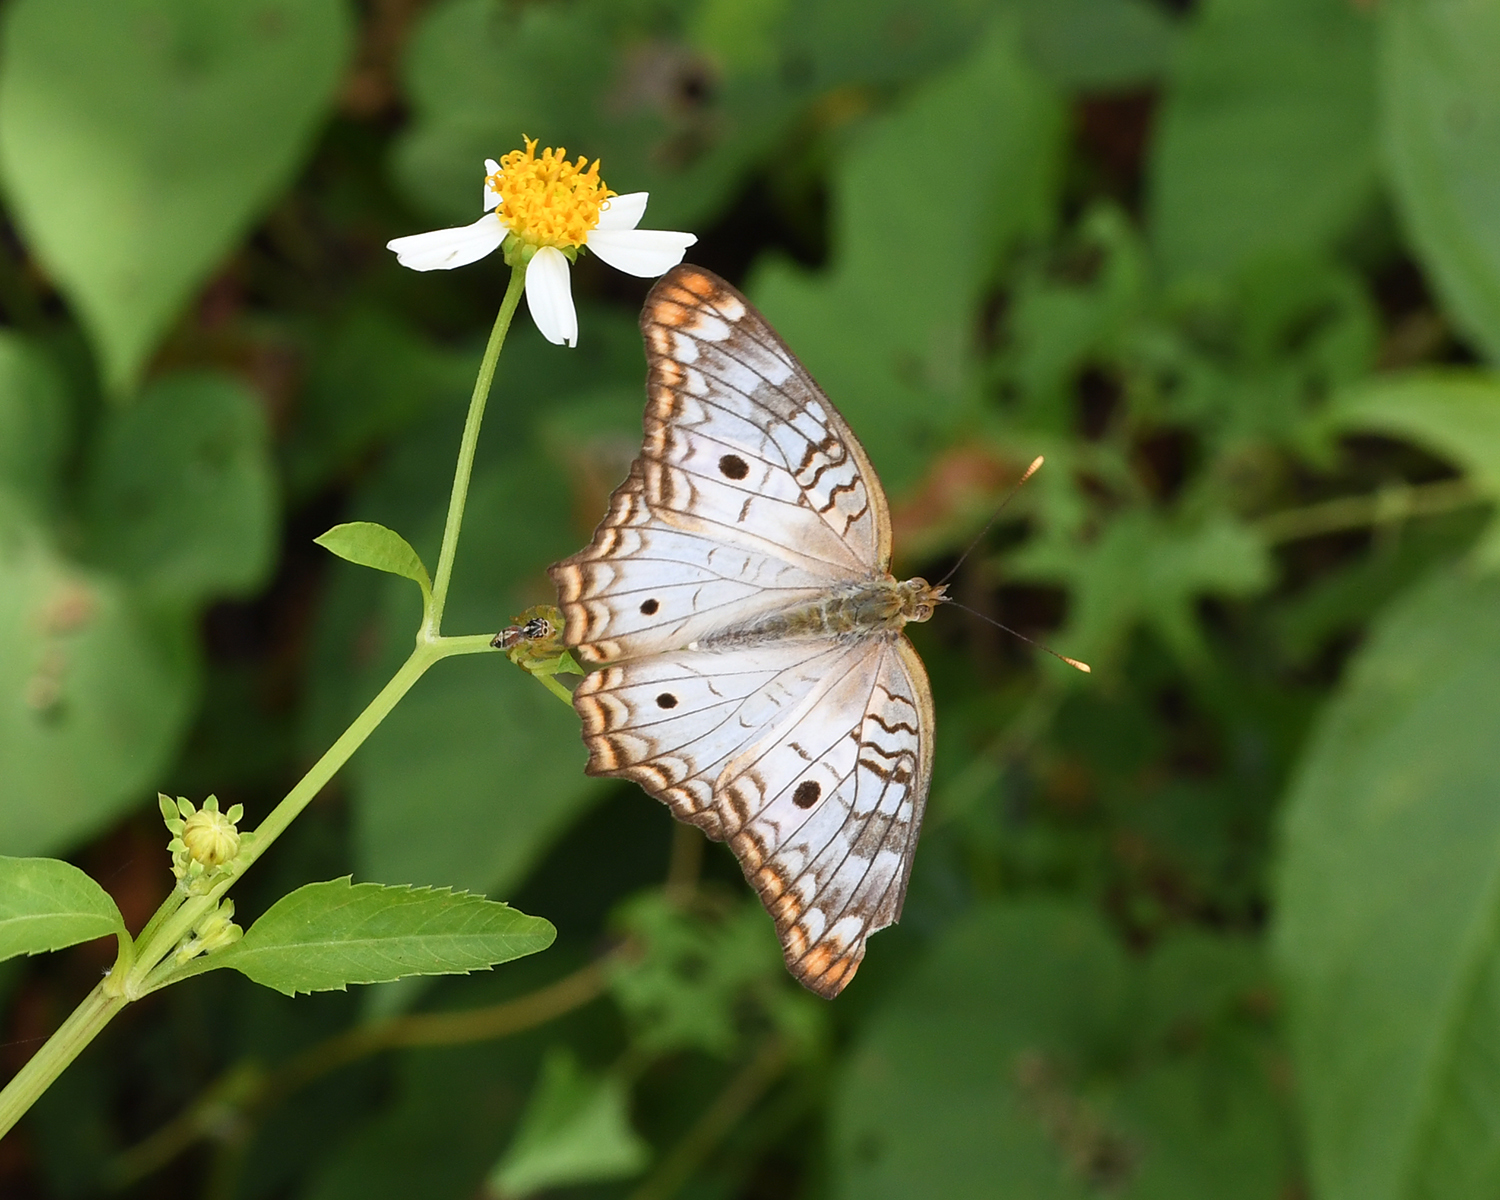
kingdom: Animalia
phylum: Arthropoda
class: Insecta
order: Lepidoptera
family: Nymphalidae
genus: Anartia
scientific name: Anartia jatrophae
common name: White peacock
